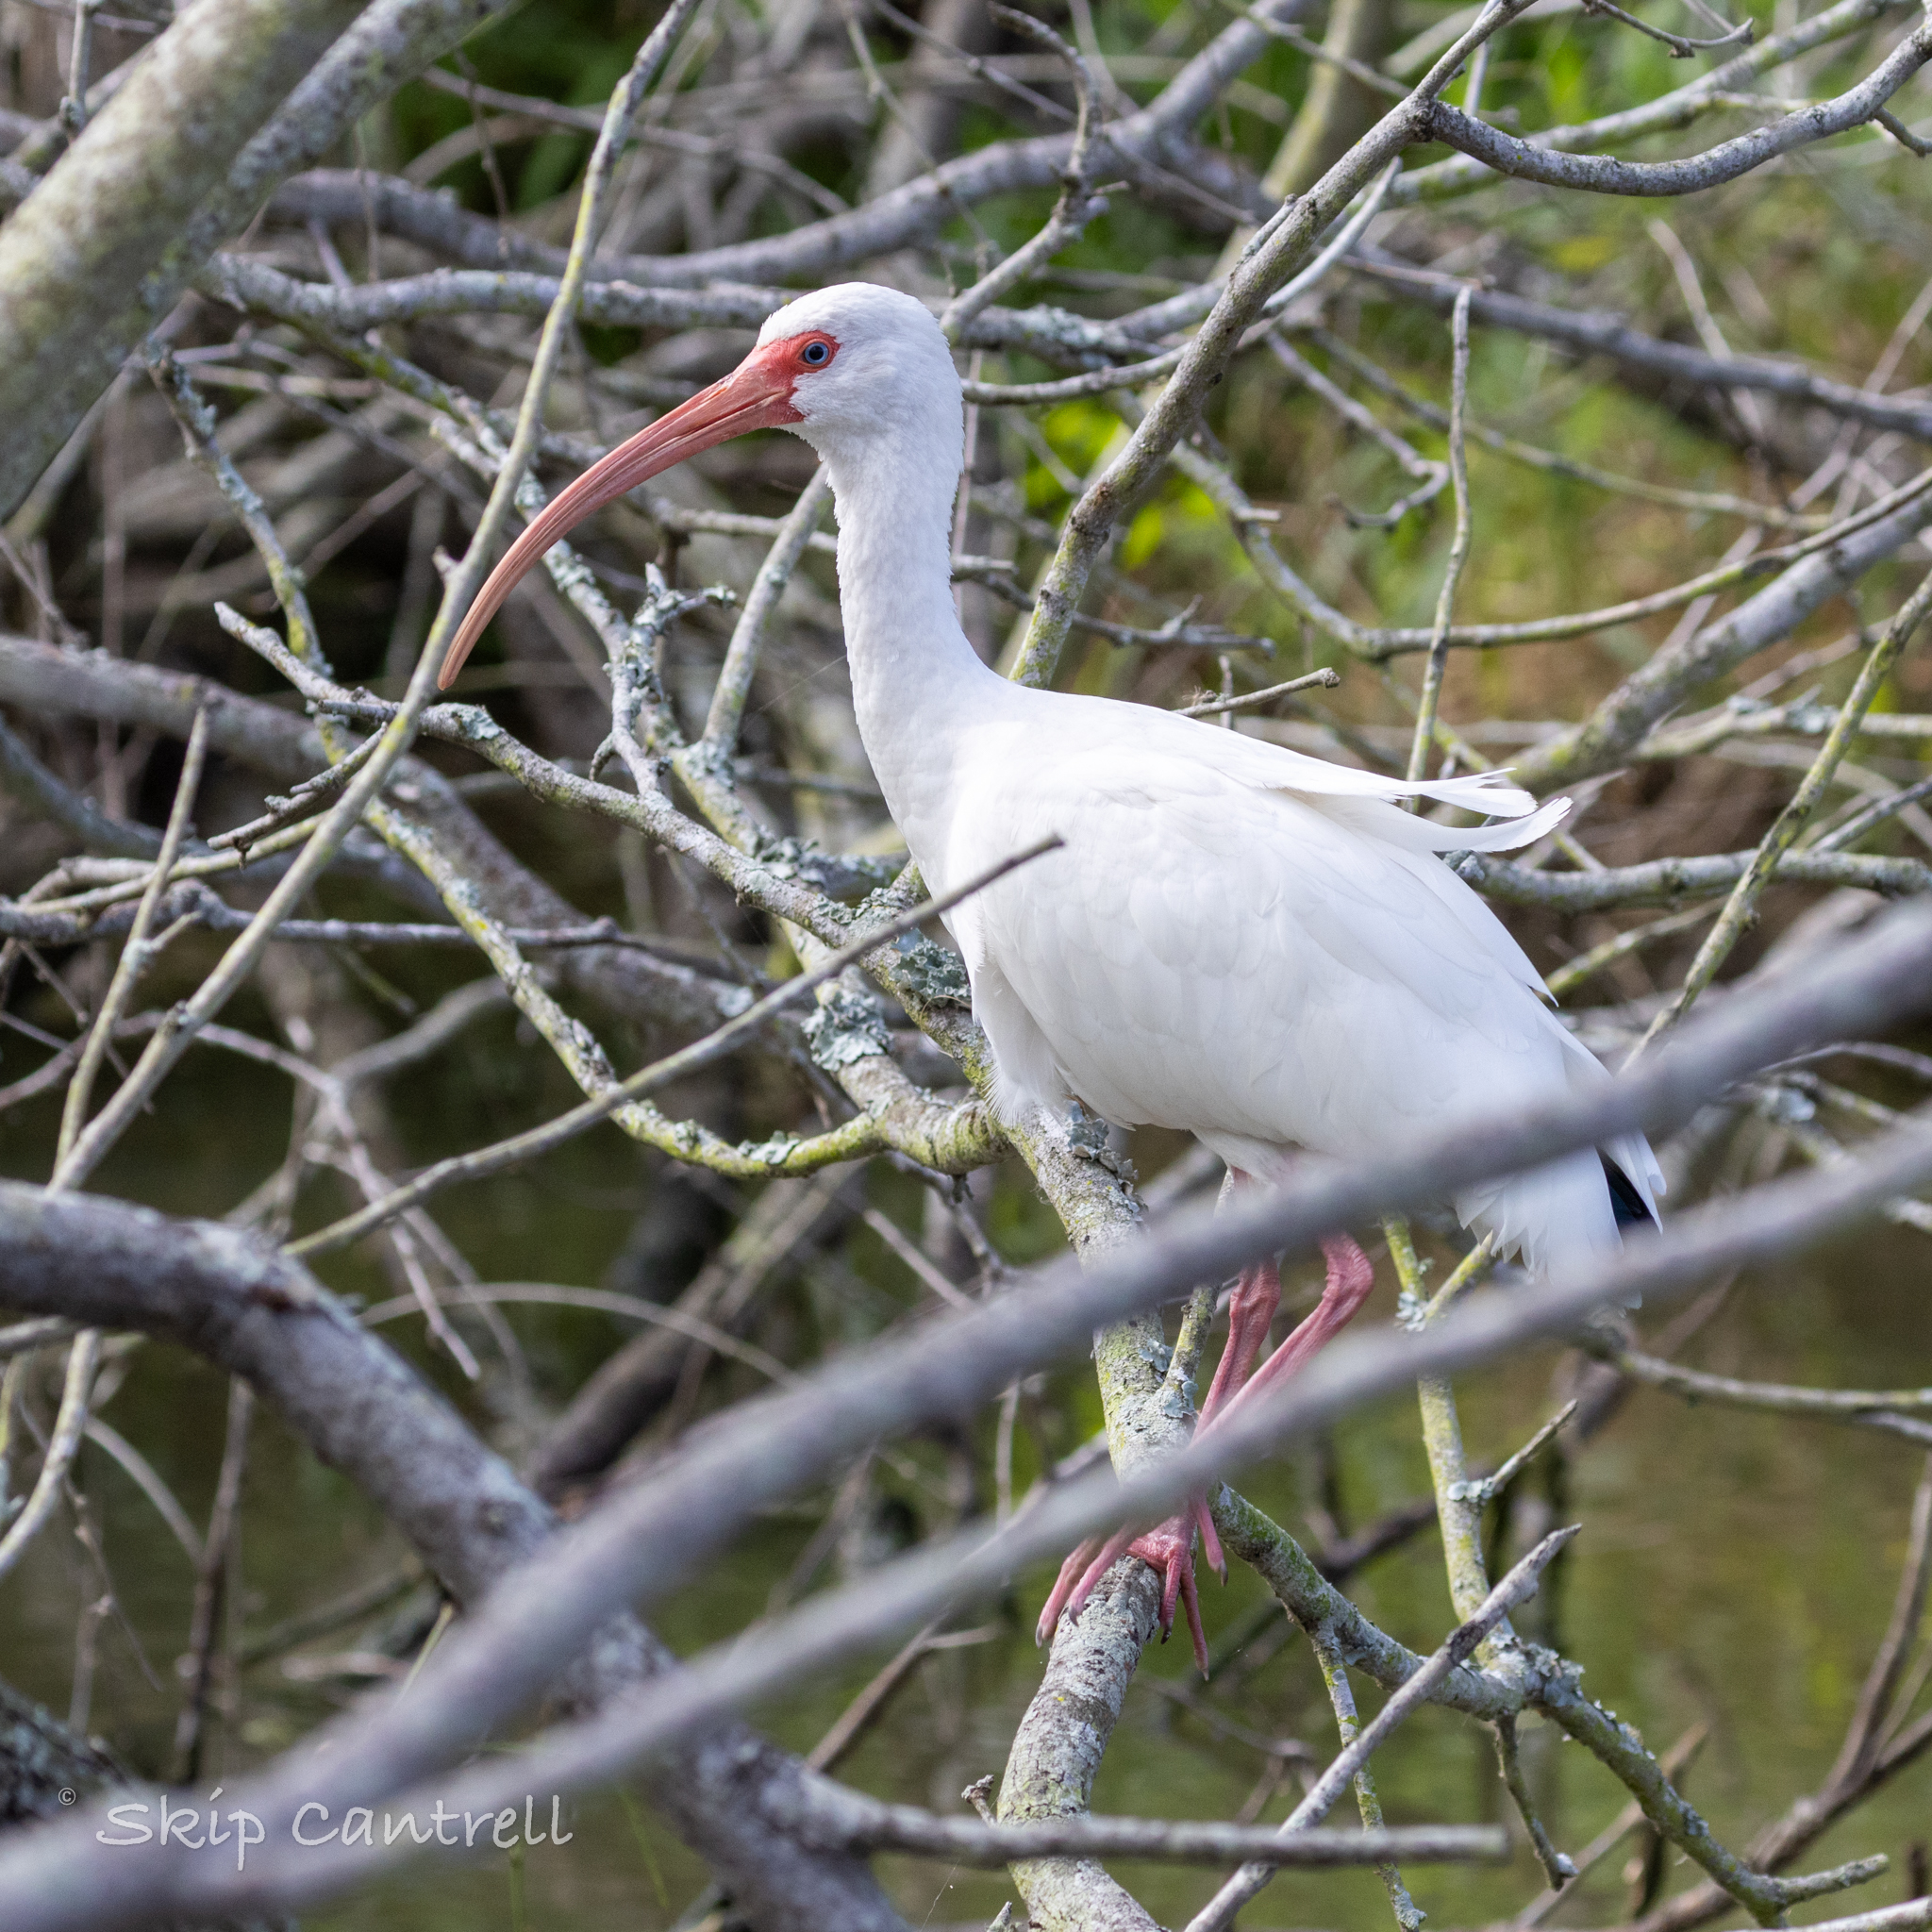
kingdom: Animalia
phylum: Chordata
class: Aves
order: Pelecaniformes
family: Threskiornithidae
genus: Eudocimus
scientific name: Eudocimus albus
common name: White ibis
